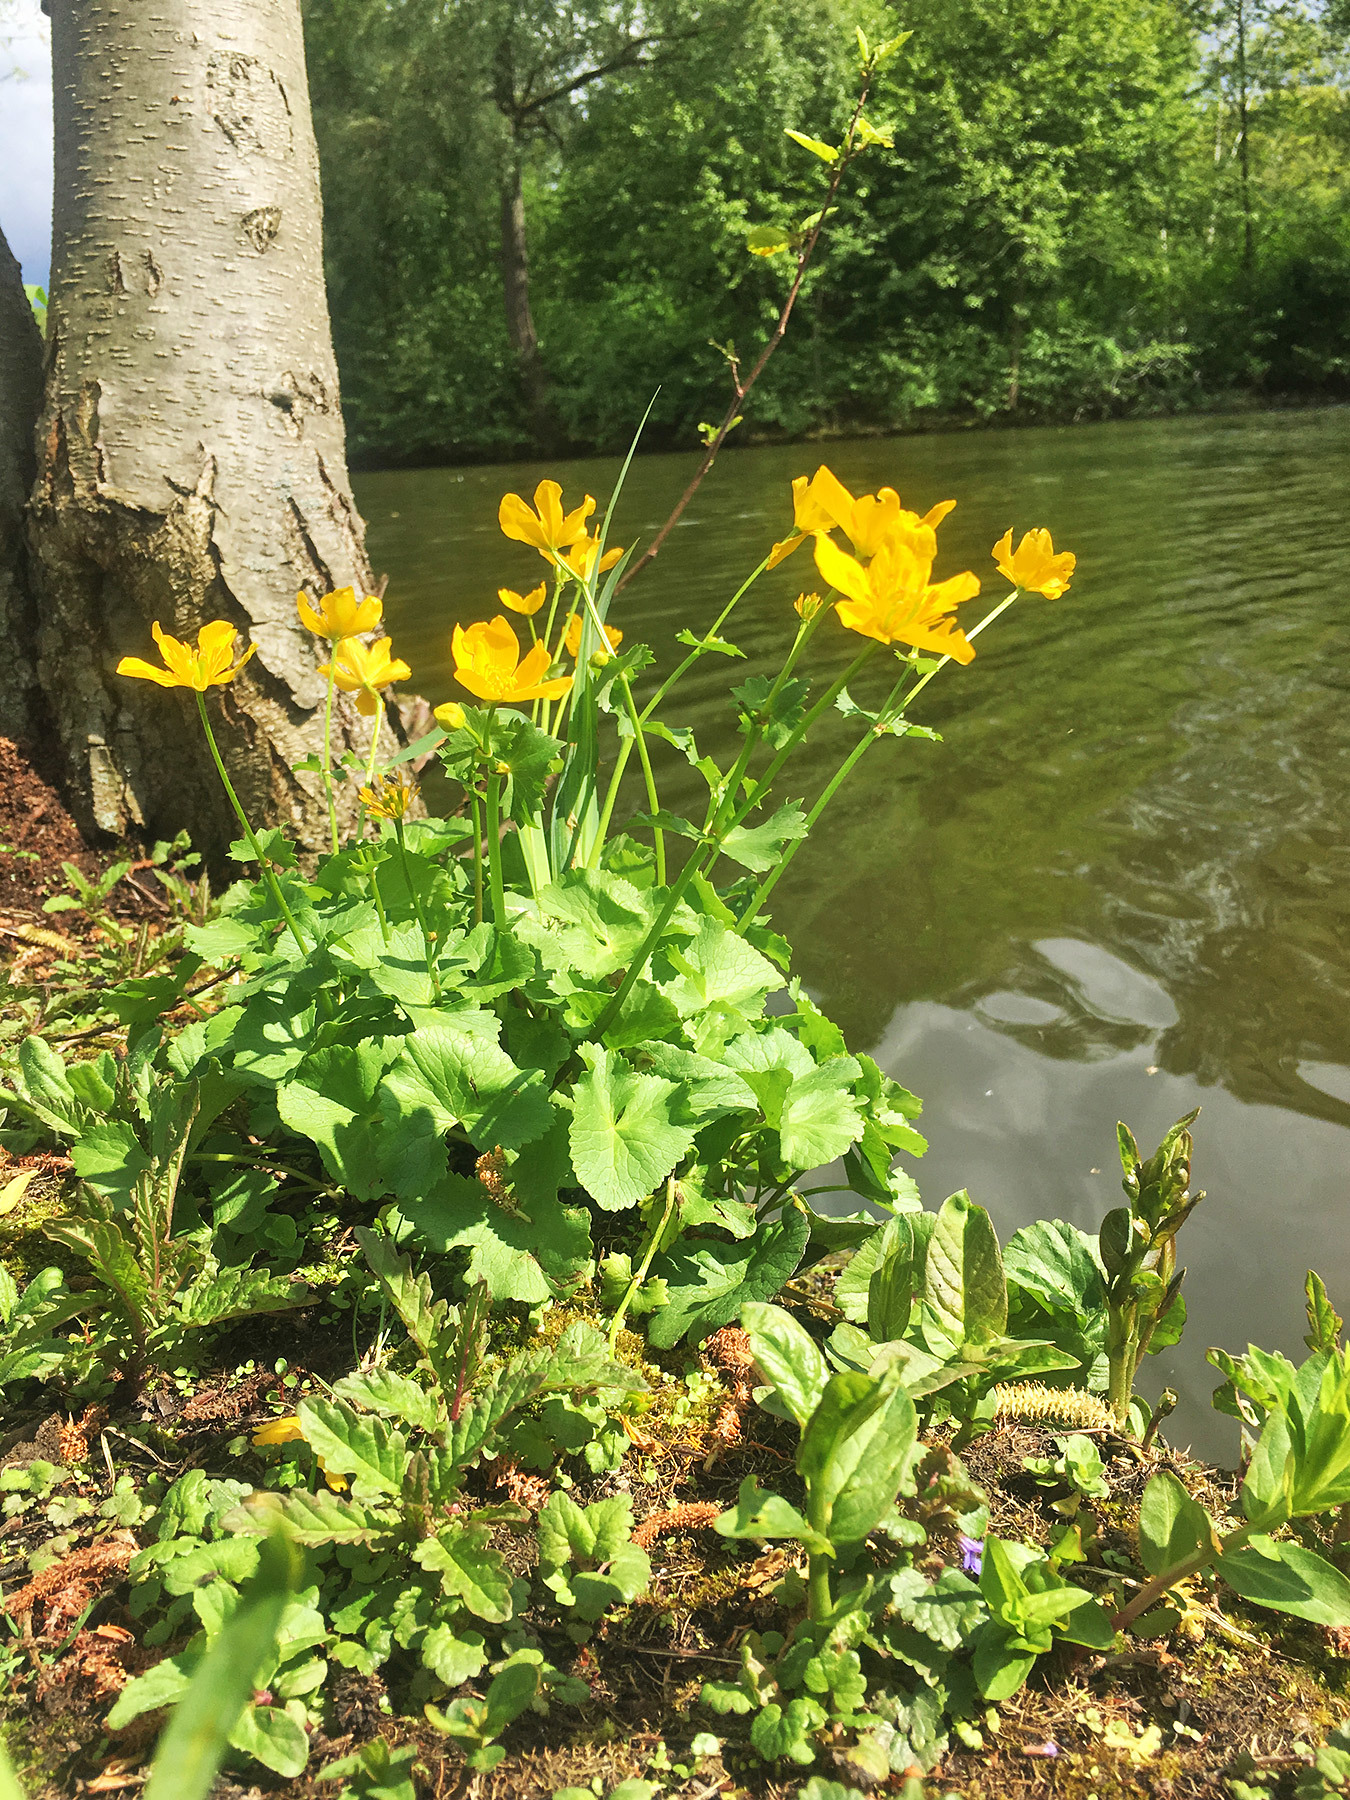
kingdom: Plantae
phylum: Tracheophyta
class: Magnoliopsida
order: Ranunculales
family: Ranunculaceae
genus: Caltha
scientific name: Caltha palustris
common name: Marsh marigold
